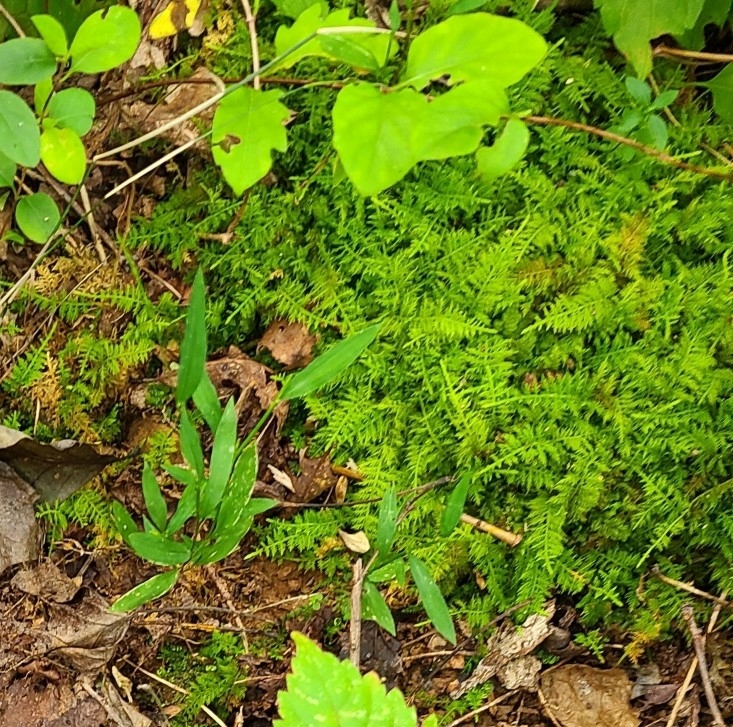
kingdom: Plantae
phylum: Bryophyta
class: Bryopsida
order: Hypnales
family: Thuidiaceae
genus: Thuidium
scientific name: Thuidium delicatulum
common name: Delicate fern moss
